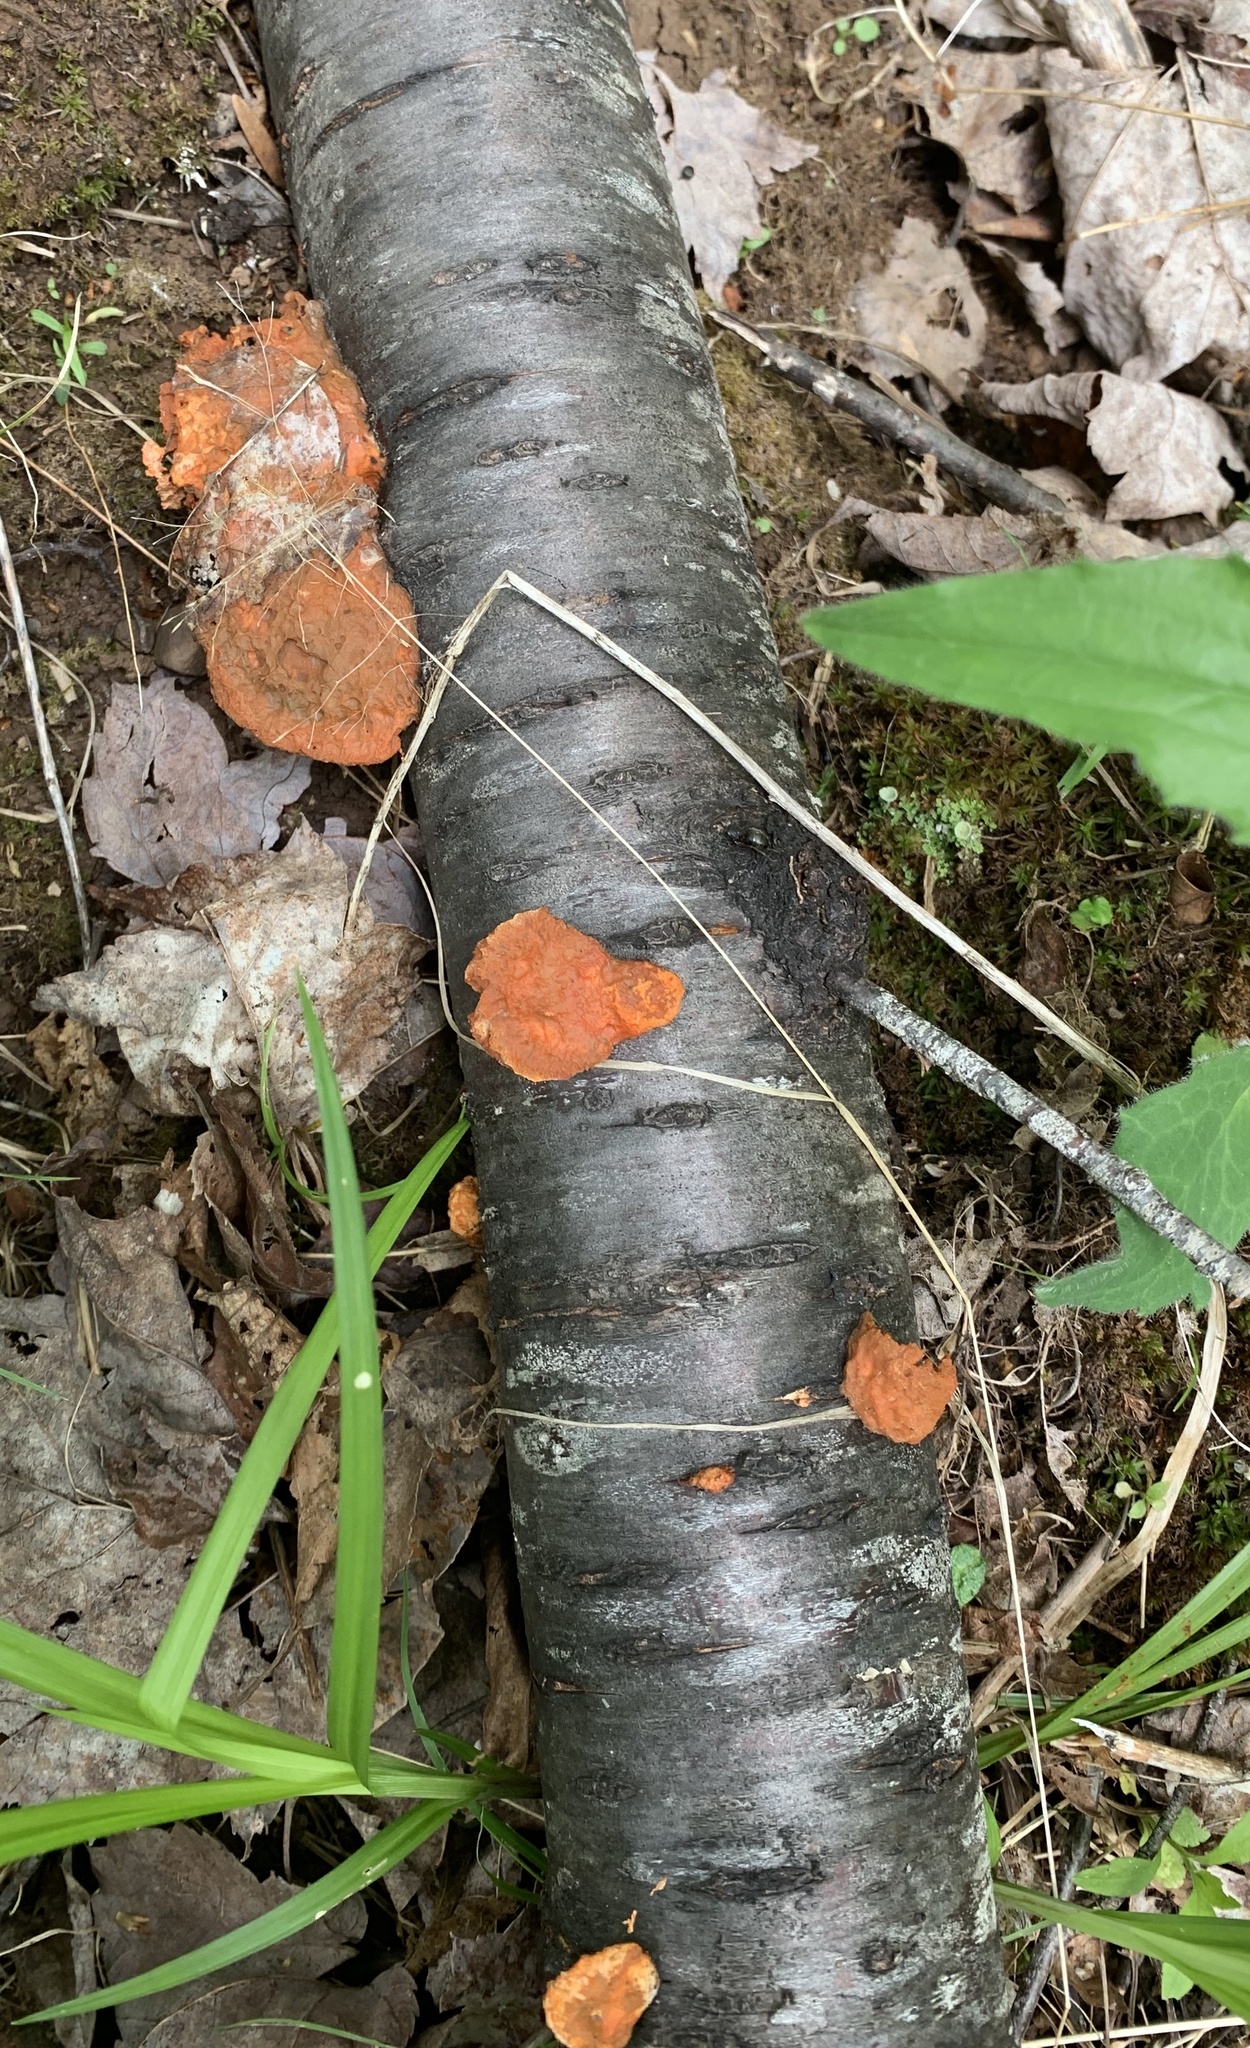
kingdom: Fungi
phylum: Basidiomycota
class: Agaricomycetes
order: Polyporales
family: Polyporaceae
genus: Trametes
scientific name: Trametes cinnabarina
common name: Northern cinnabar polypore
